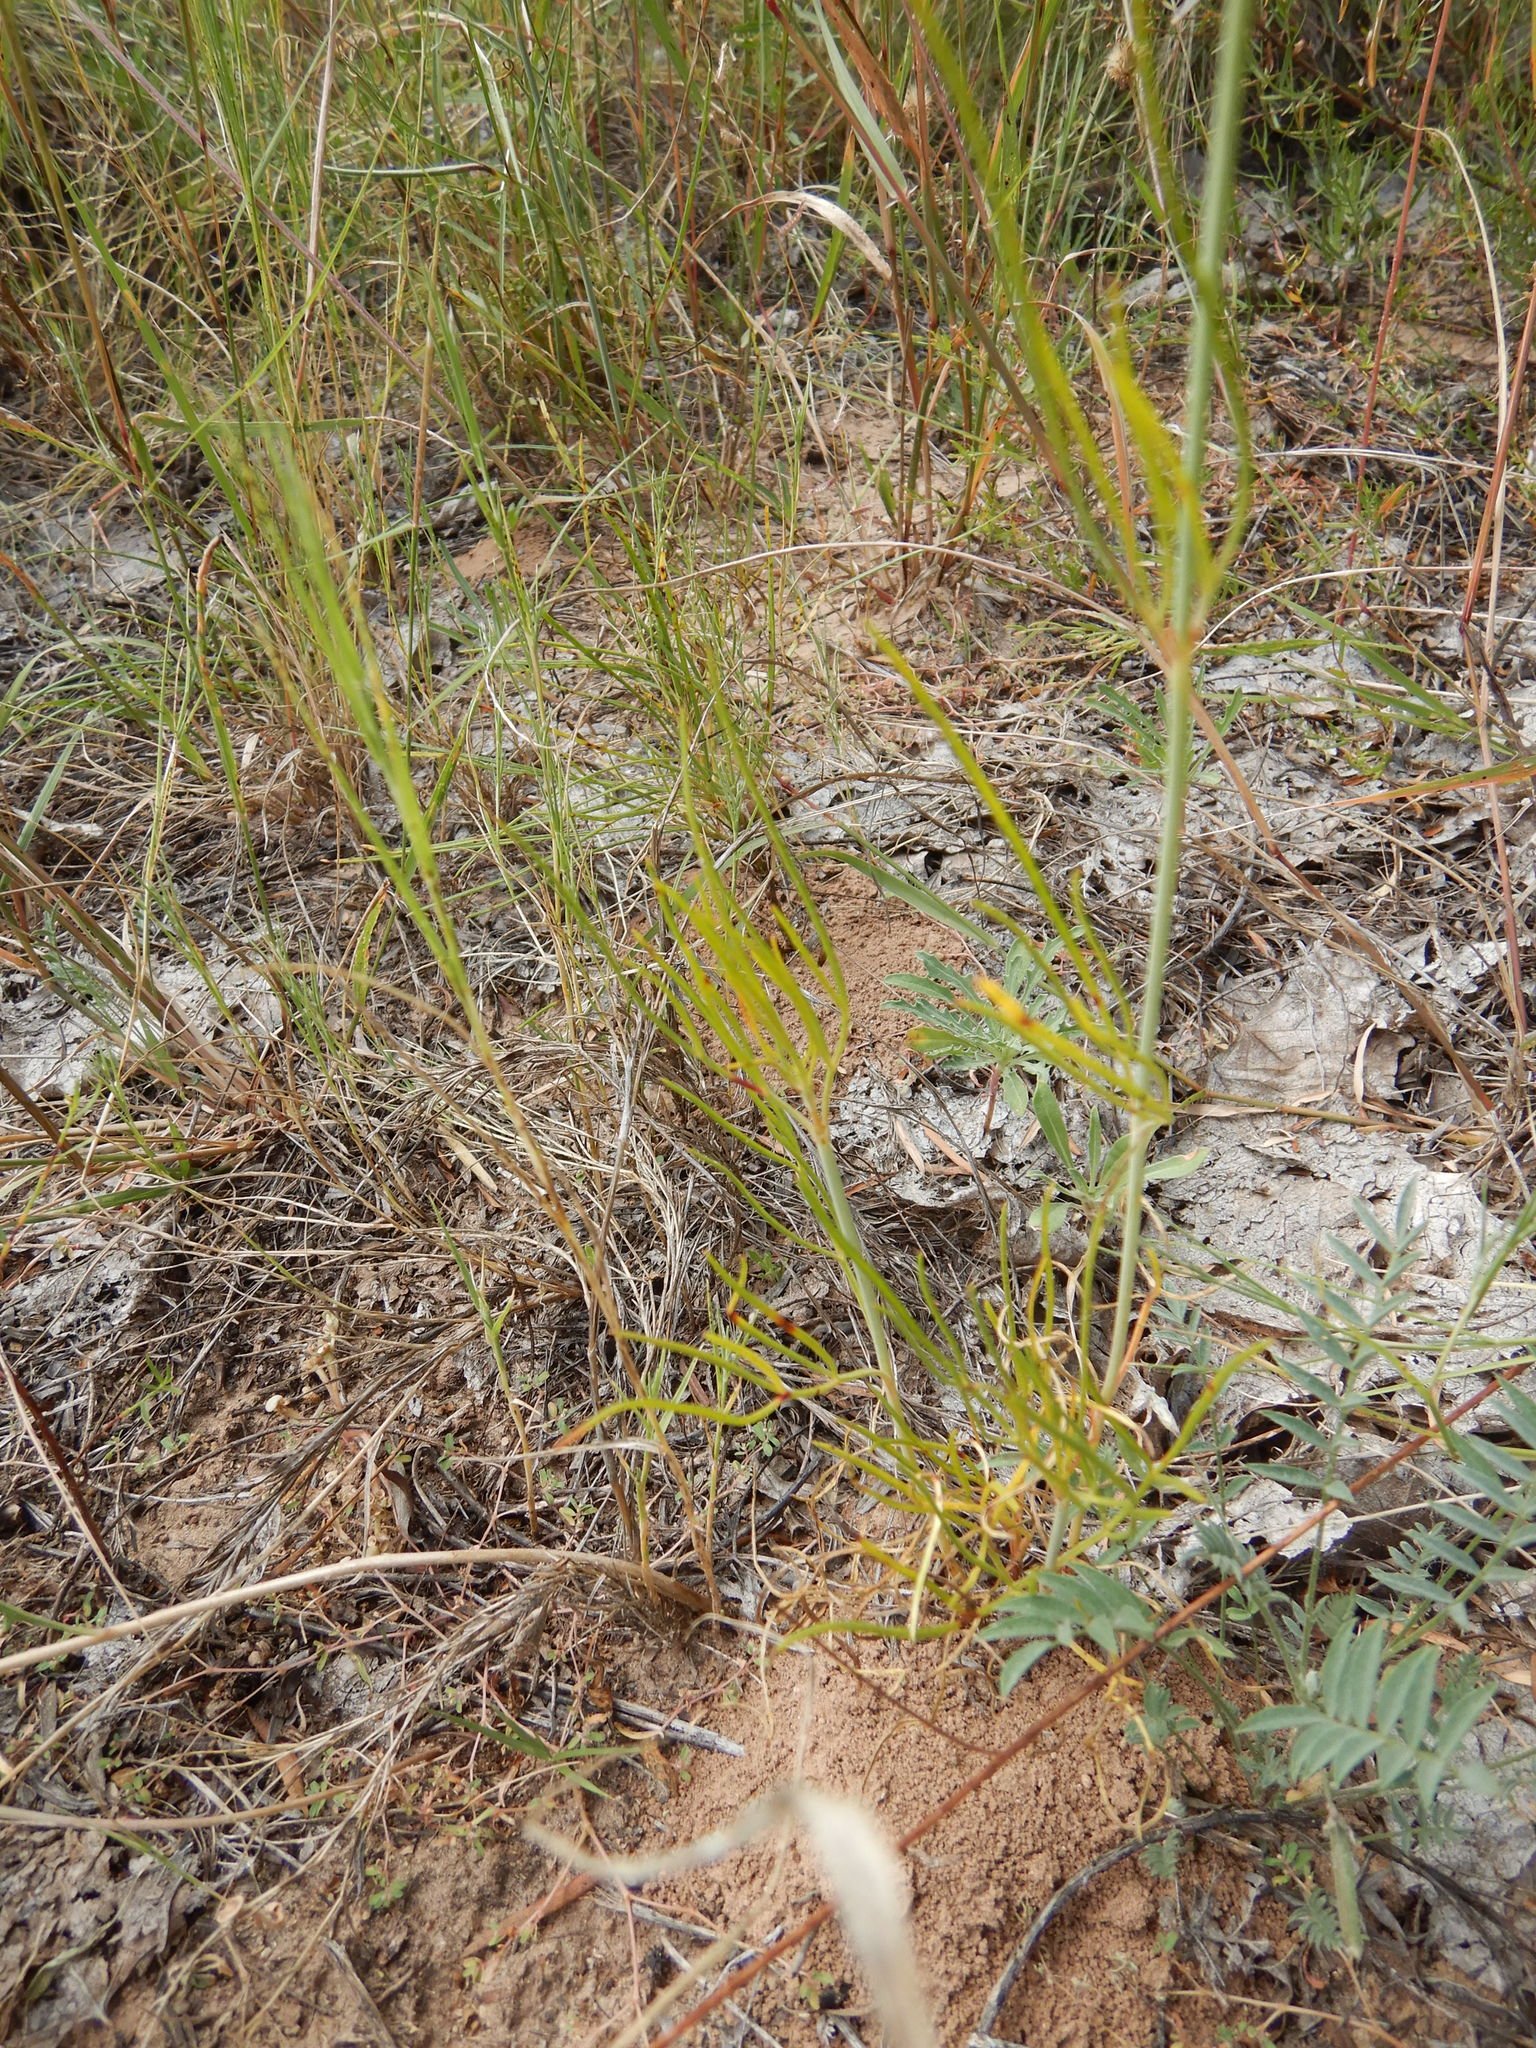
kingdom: Plantae
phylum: Tracheophyta
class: Magnoliopsida
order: Asterales
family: Asteraceae
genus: Thelesperma
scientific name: Thelesperma megapotamicum
